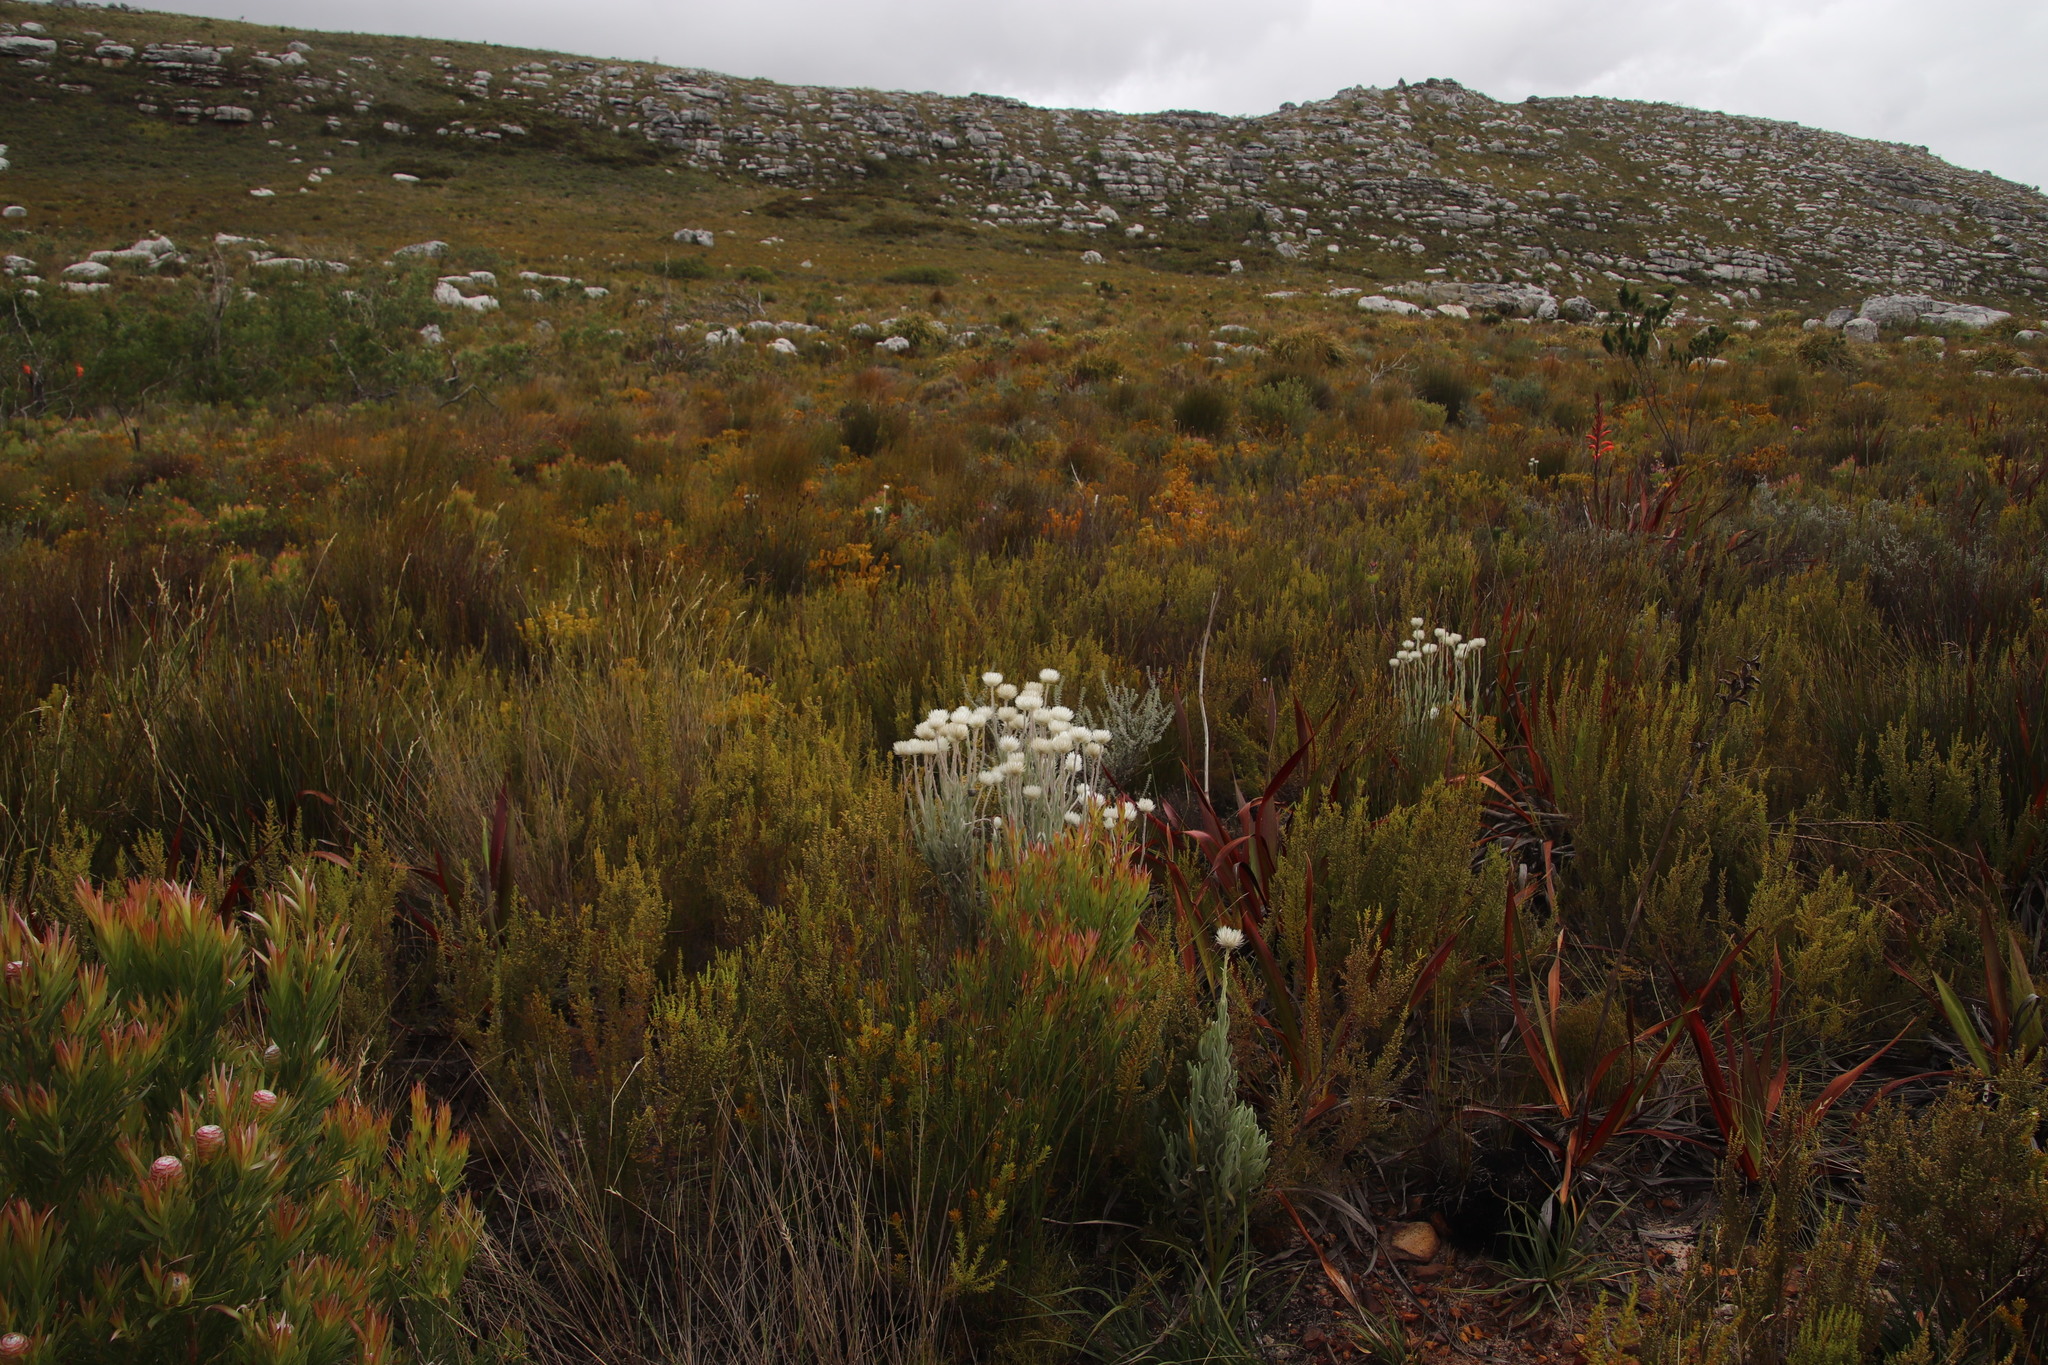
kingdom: Plantae
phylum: Tracheophyta
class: Magnoliopsida
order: Asterales
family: Asteraceae
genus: Syncarpha
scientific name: Syncarpha vestita
